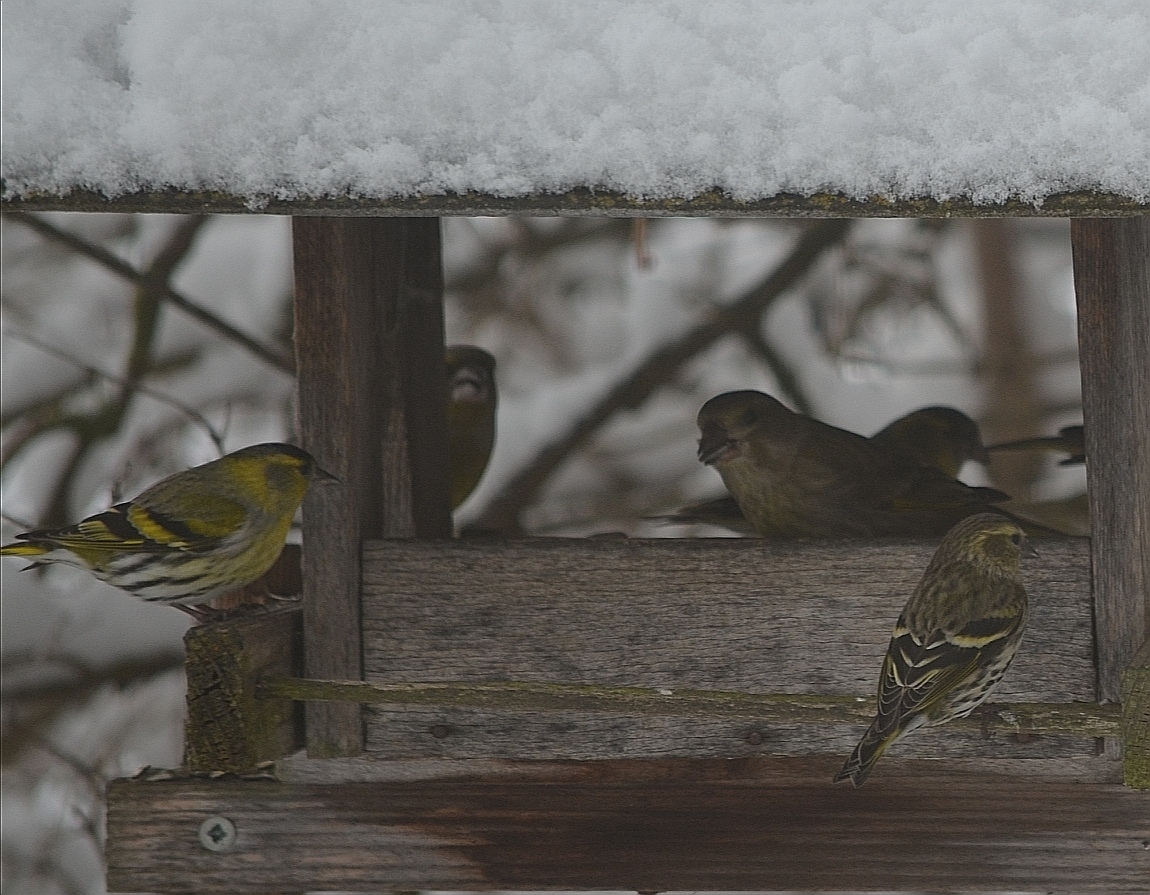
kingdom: Animalia
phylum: Chordata
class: Aves
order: Passeriformes
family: Fringillidae
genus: Spinus
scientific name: Spinus spinus
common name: Eurasian siskin
